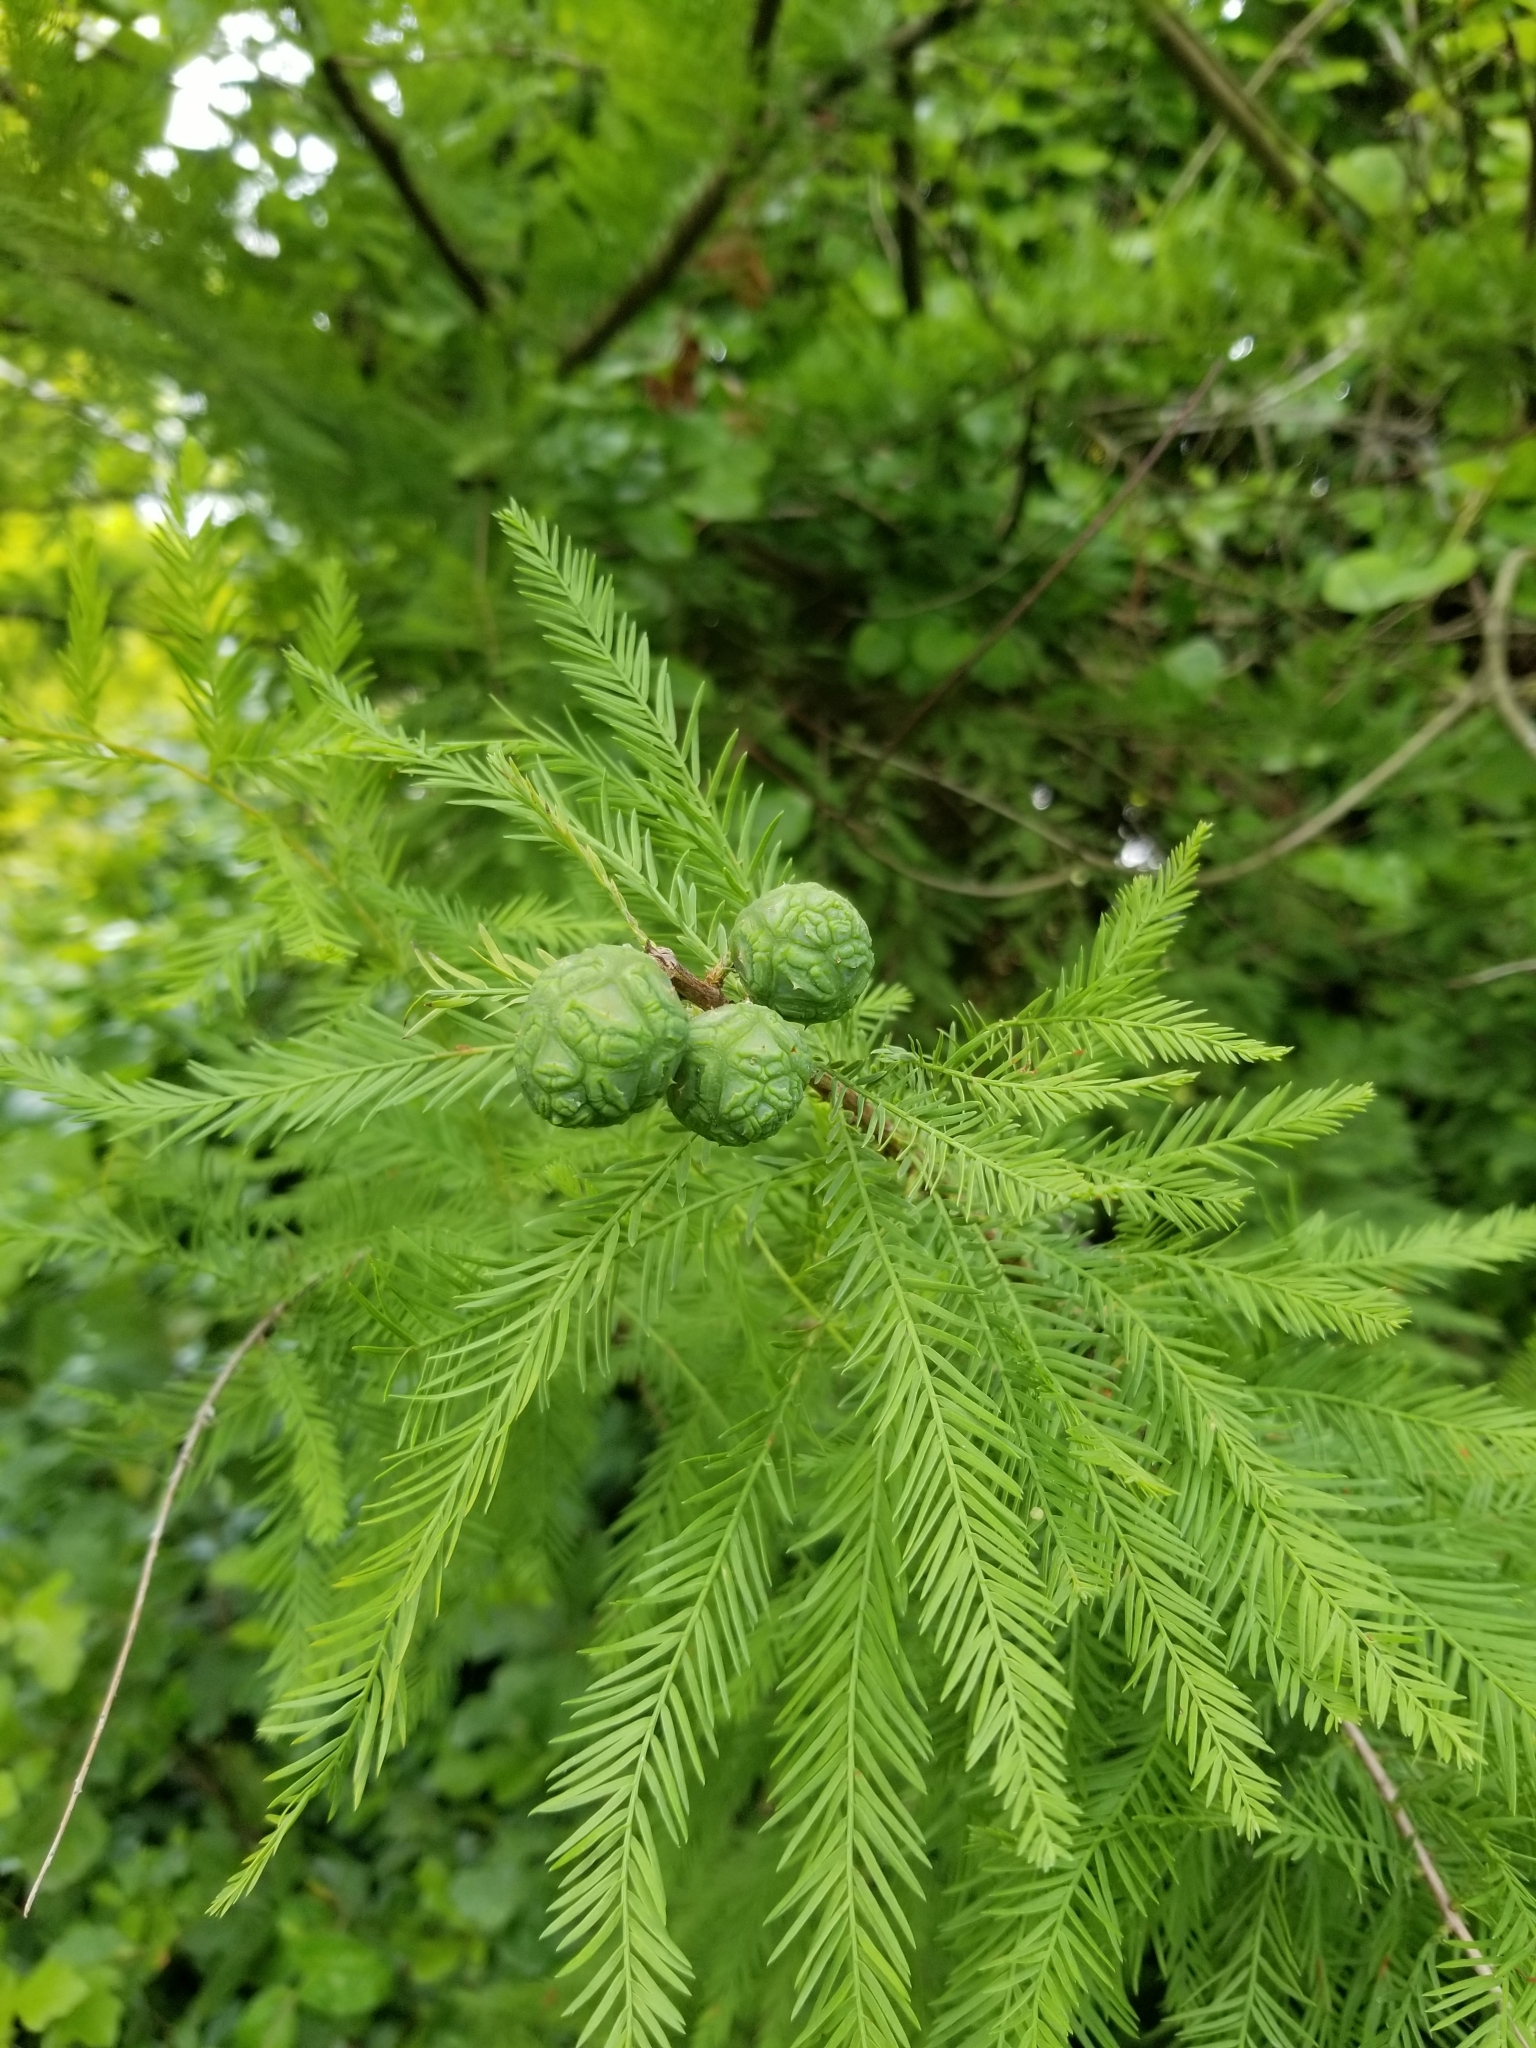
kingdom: Plantae
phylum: Tracheophyta
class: Pinopsida
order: Pinales
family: Cupressaceae
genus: Taxodium
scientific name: Taxodium distichum
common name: Bald cypress
